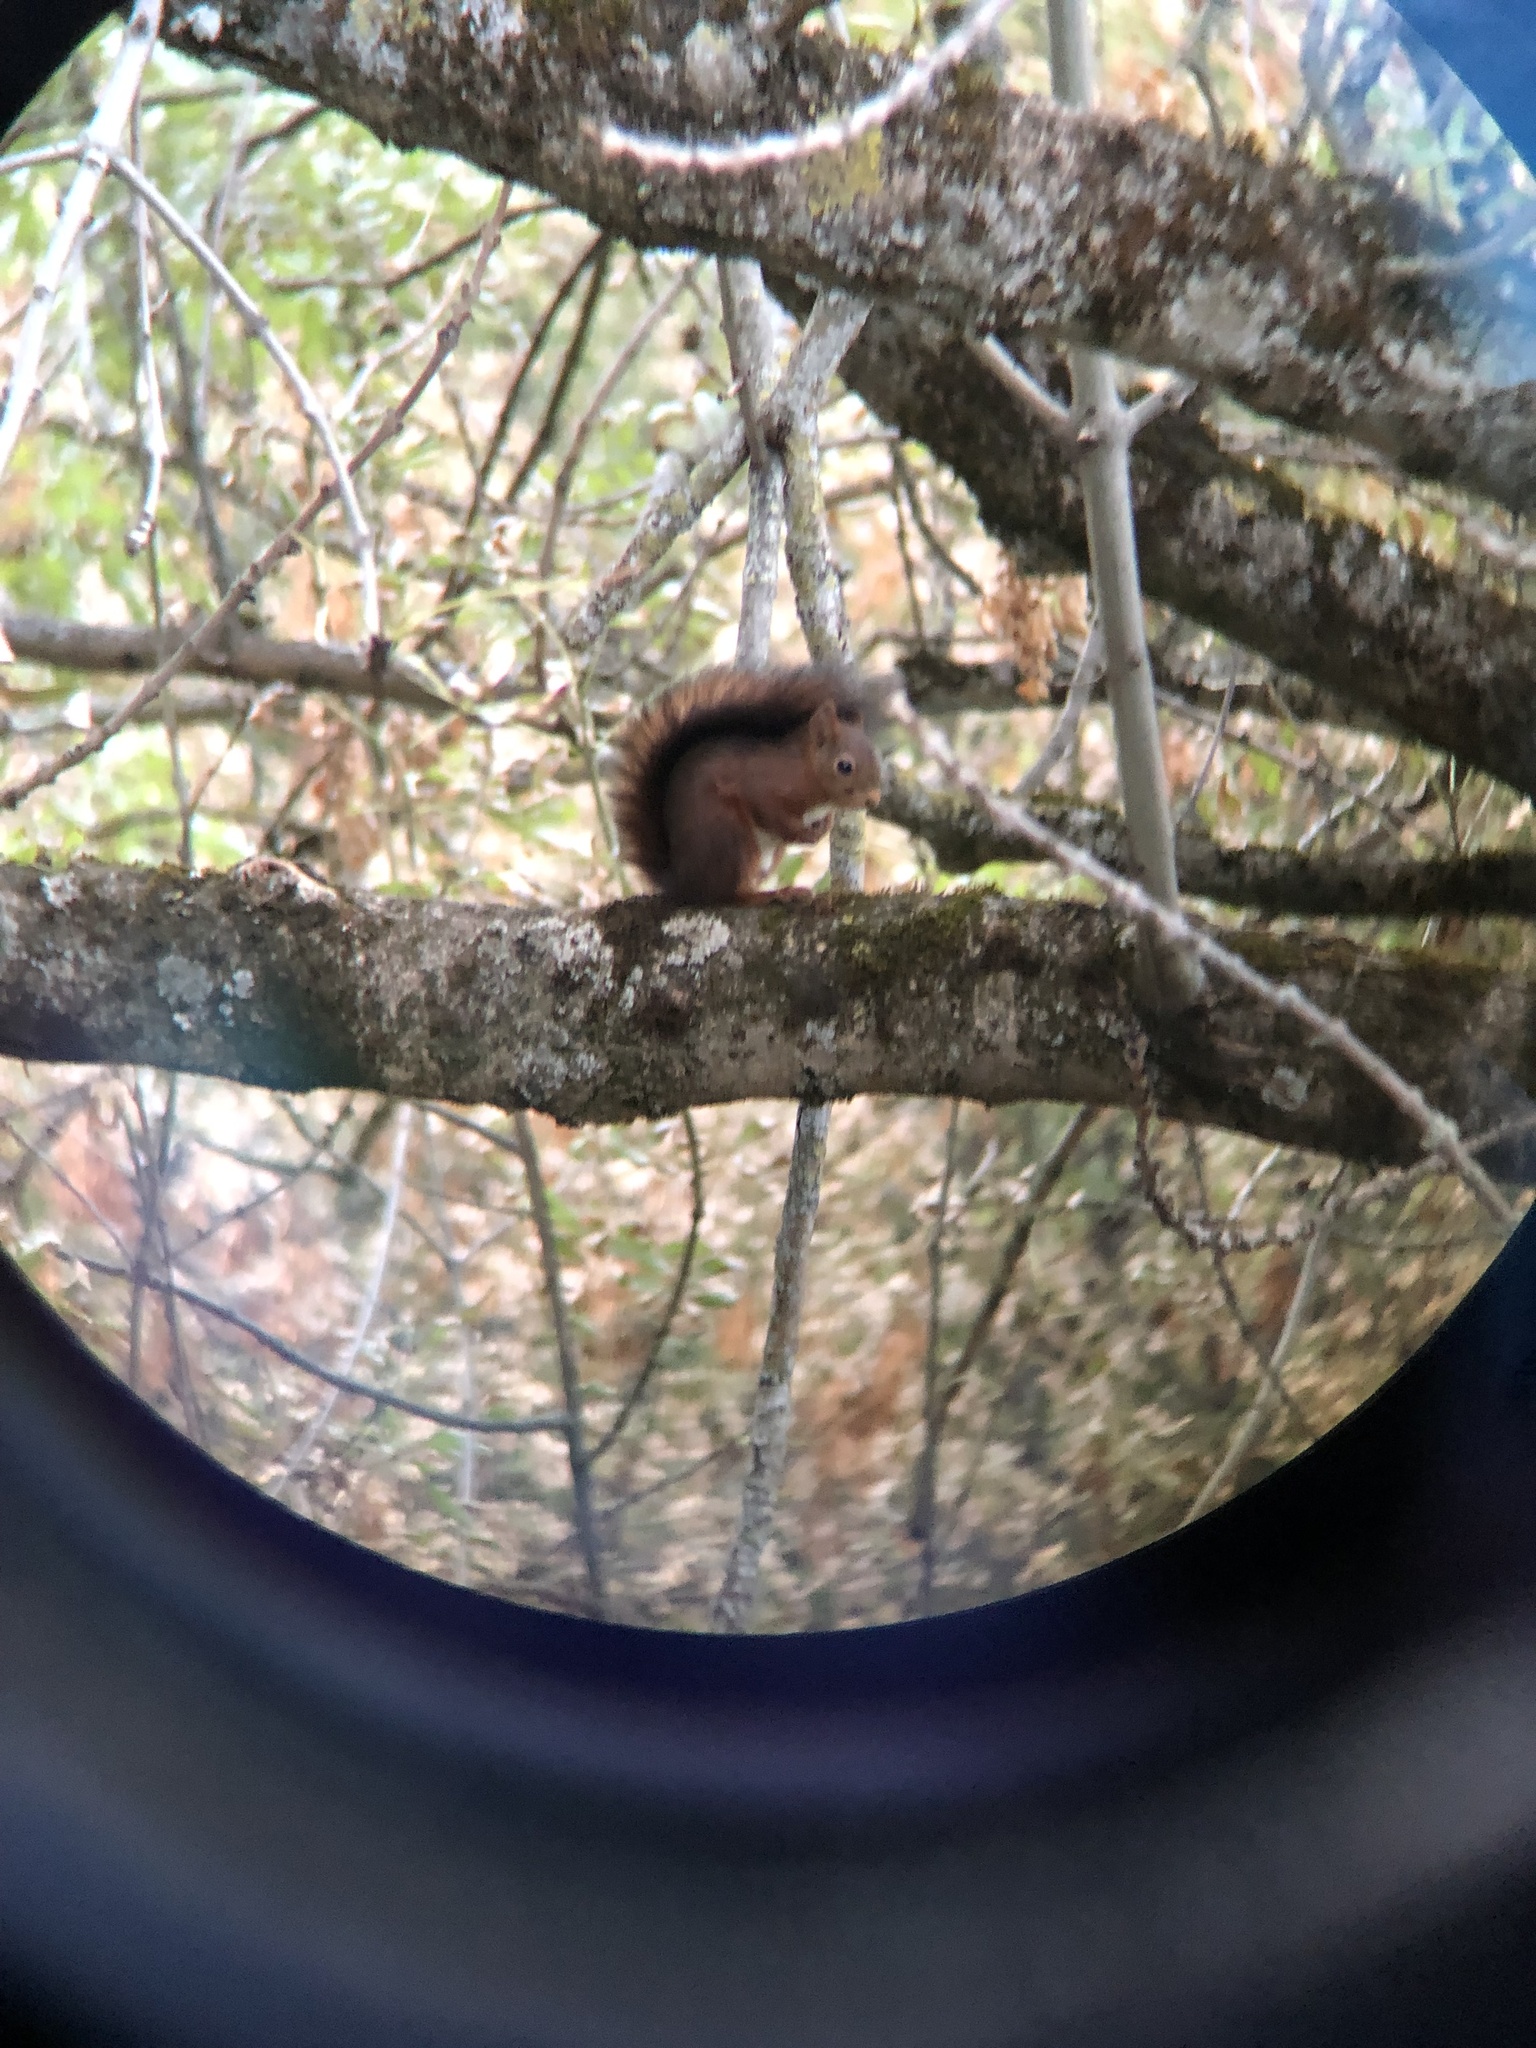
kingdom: Animalia
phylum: Chordata
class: Mammalia
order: Rodentia
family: Sciuridae
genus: Sciurus
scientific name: Sciurus vulgaris
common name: Eurasian red squirrel
